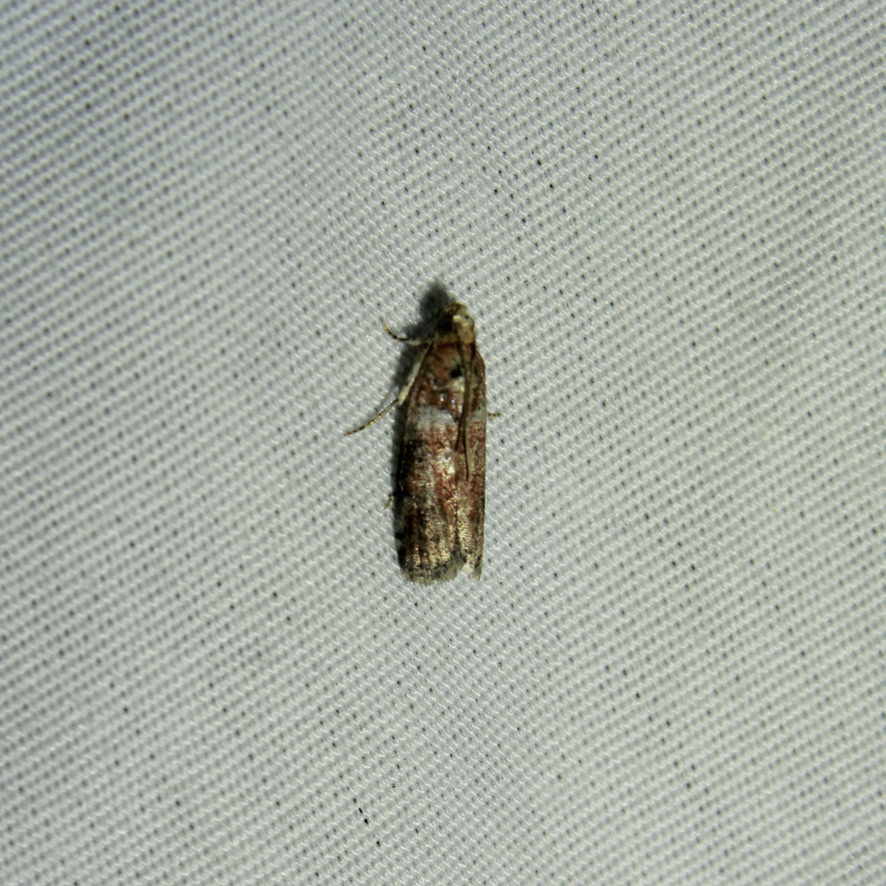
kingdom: Animalia
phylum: Arthropoda
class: Insecta
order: Lepidoptera
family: Pyralidae
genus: Sciota
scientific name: Sciota
